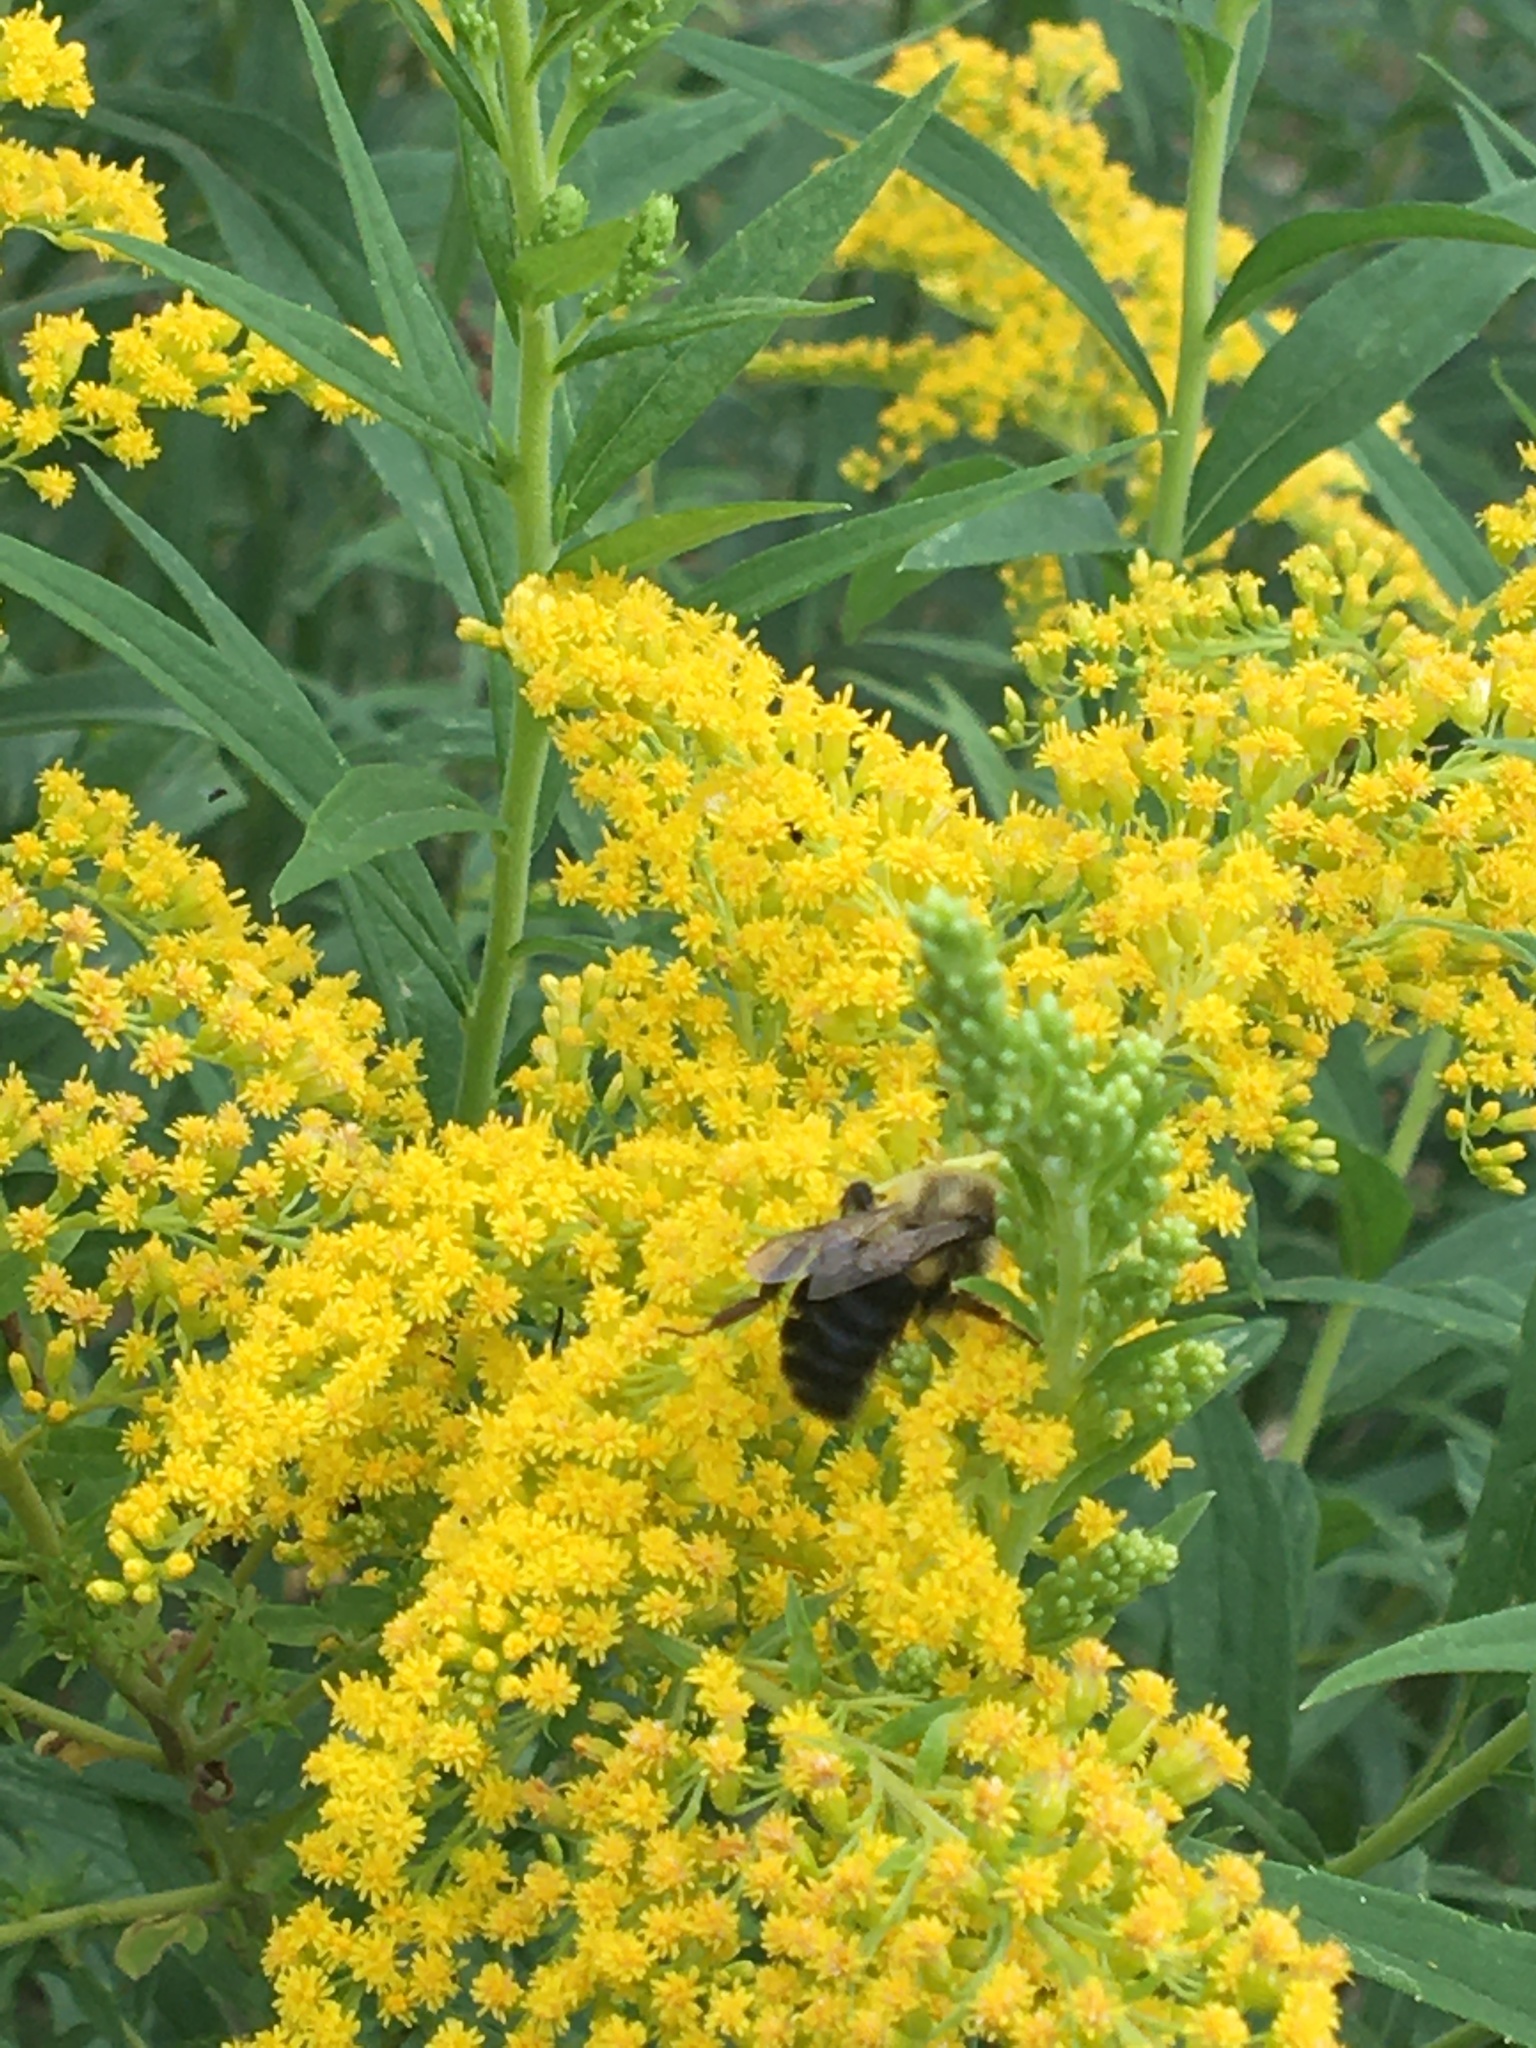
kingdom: Animalia
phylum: Arthropoda
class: Insecta
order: Hymenoptera
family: Apidae
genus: Bombus
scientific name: Bombus impatiens
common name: Common eastern bumble bee
